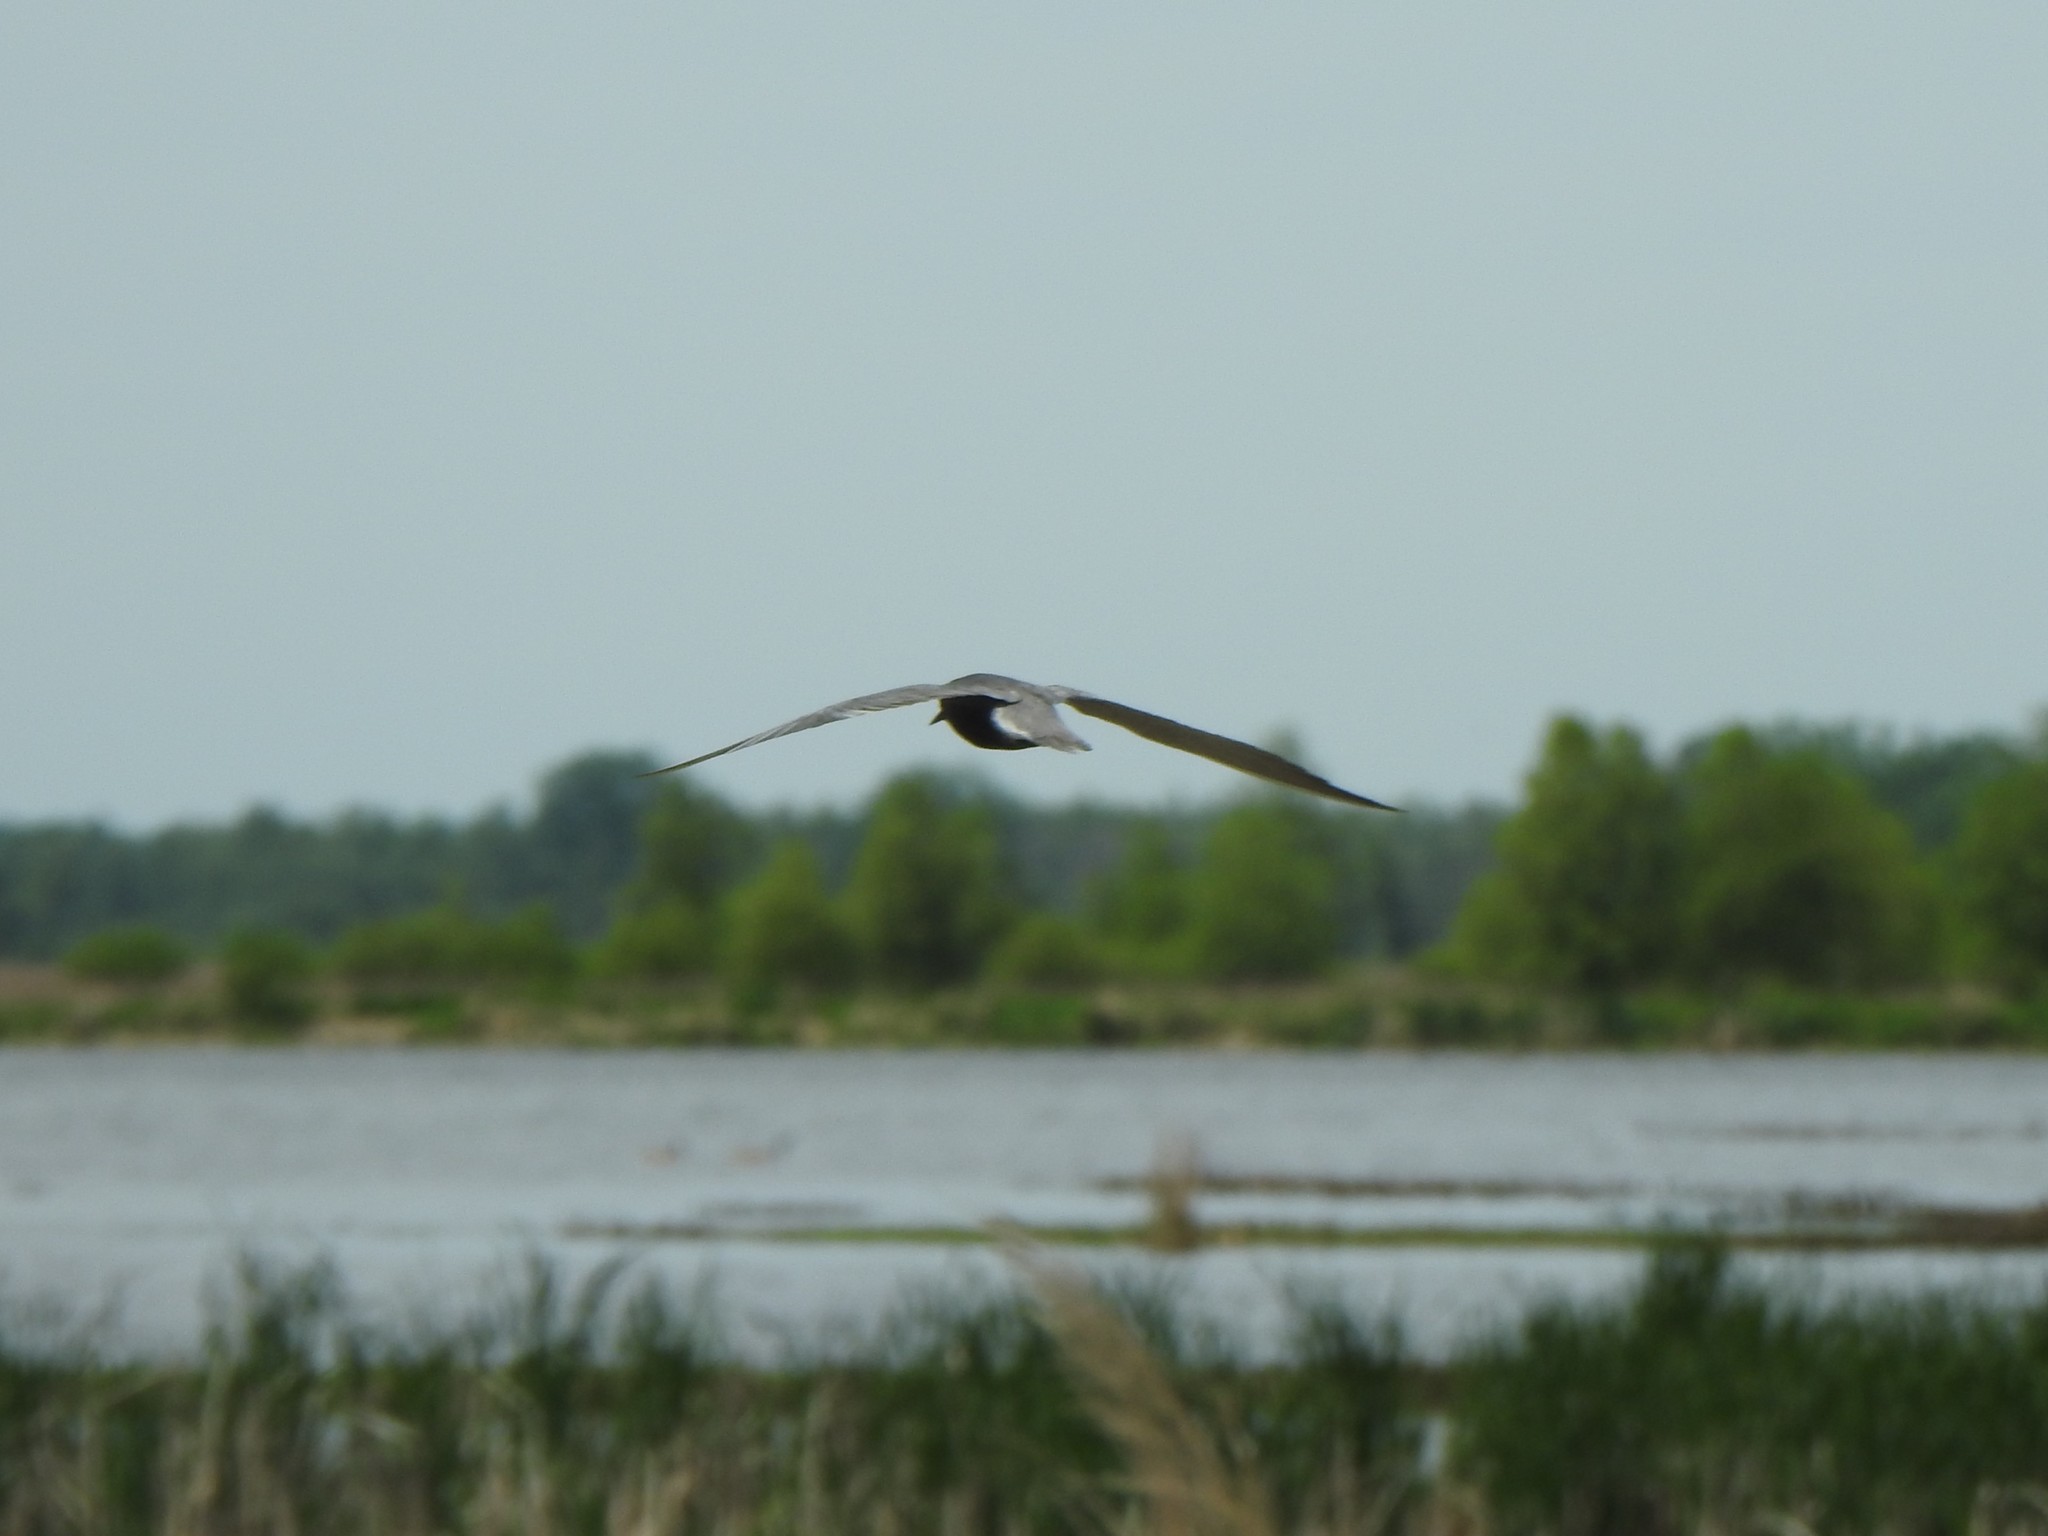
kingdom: Animalia
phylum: Chordata
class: Aves
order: Charadriiformes
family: Laridae
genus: Chlidonias
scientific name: Chlidonias niger
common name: Black tern
